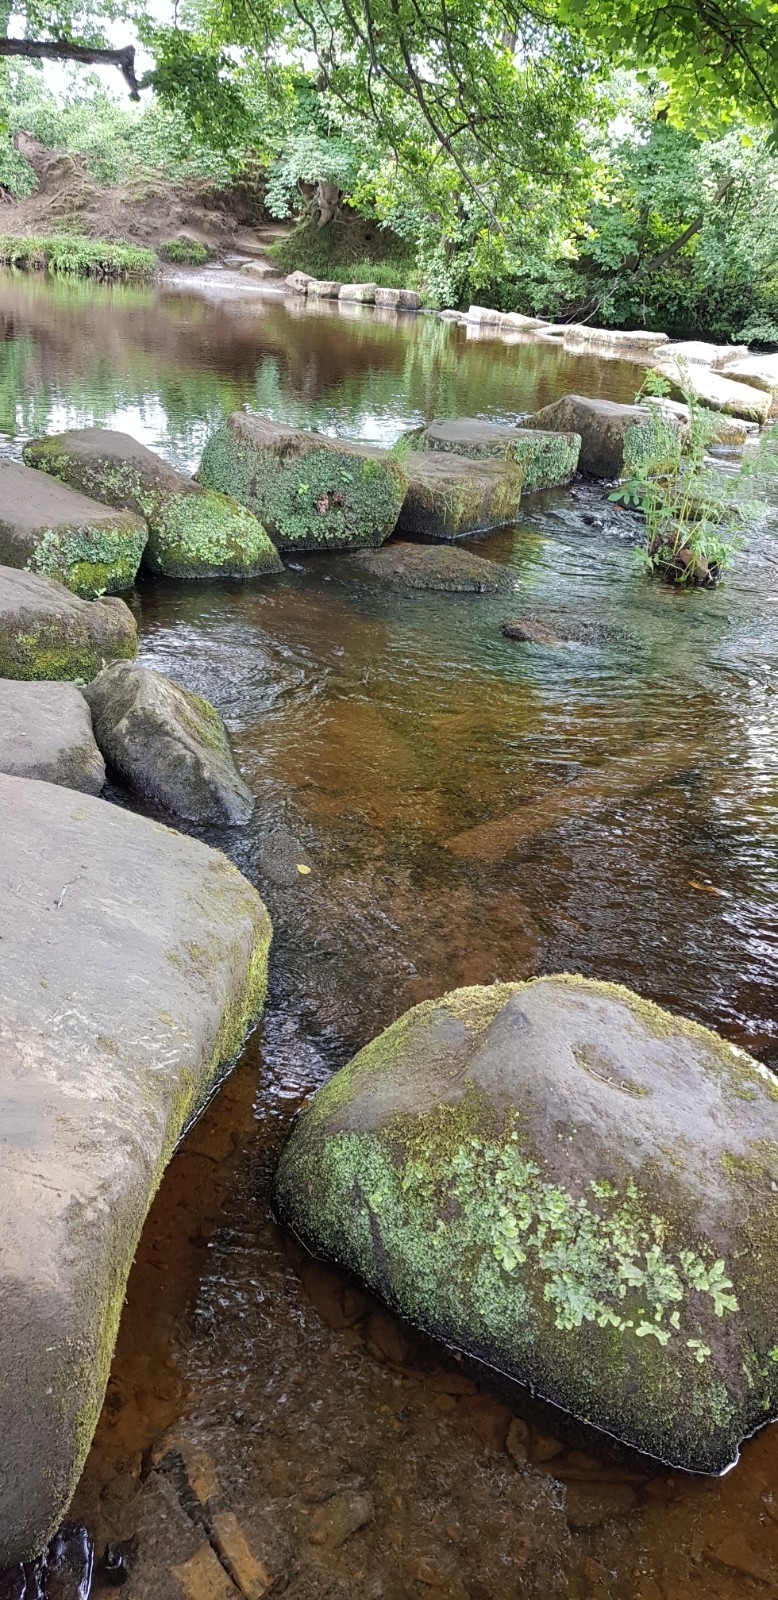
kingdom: Plantae
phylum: Marchantiophyta
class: Marchantiopsida
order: Marchantiales
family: Conocephalaceae
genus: Conocephalum
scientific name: Conocephalum conicum
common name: Great scented liverwort
